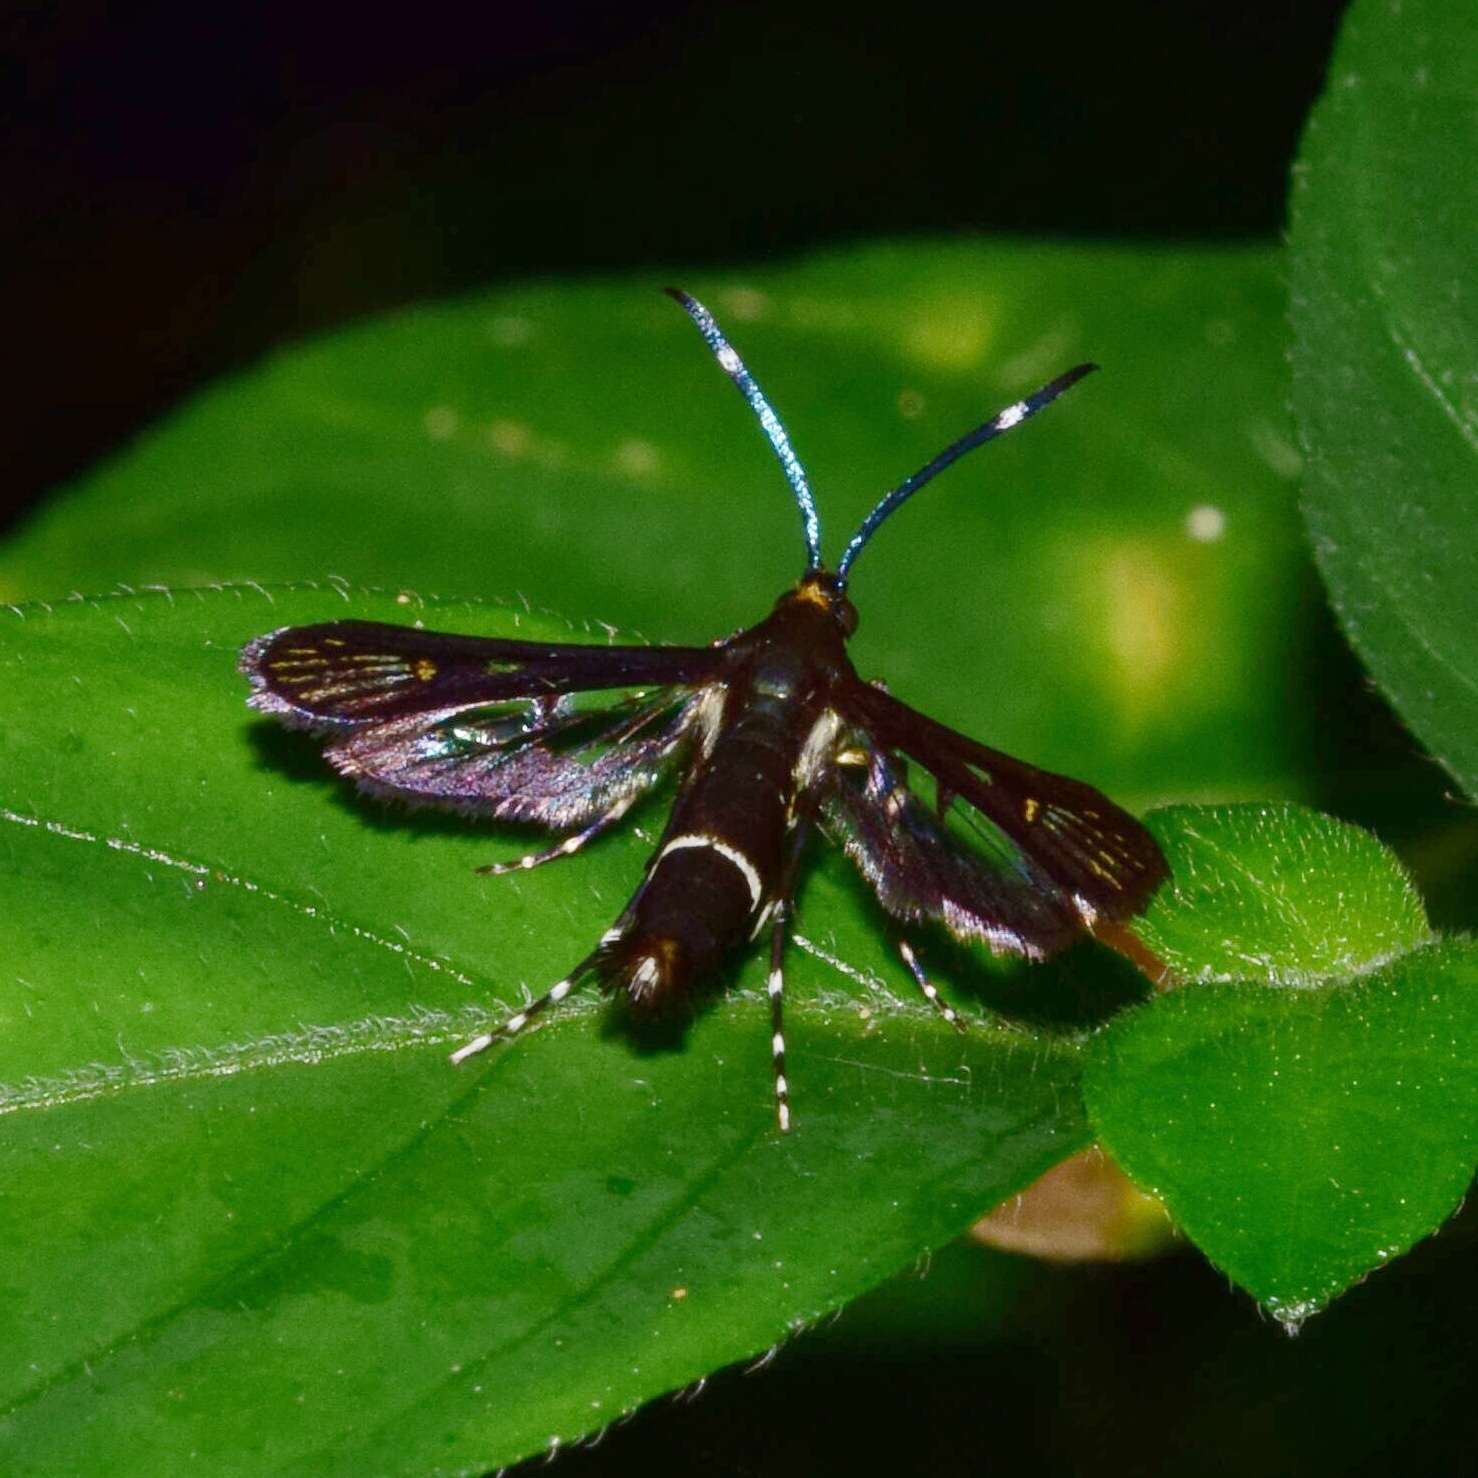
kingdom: Animalia
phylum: Arthropoda
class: Insecta
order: Lepidoptera
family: Sesiidae
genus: Cabomina
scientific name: Cabomina hilariformis
